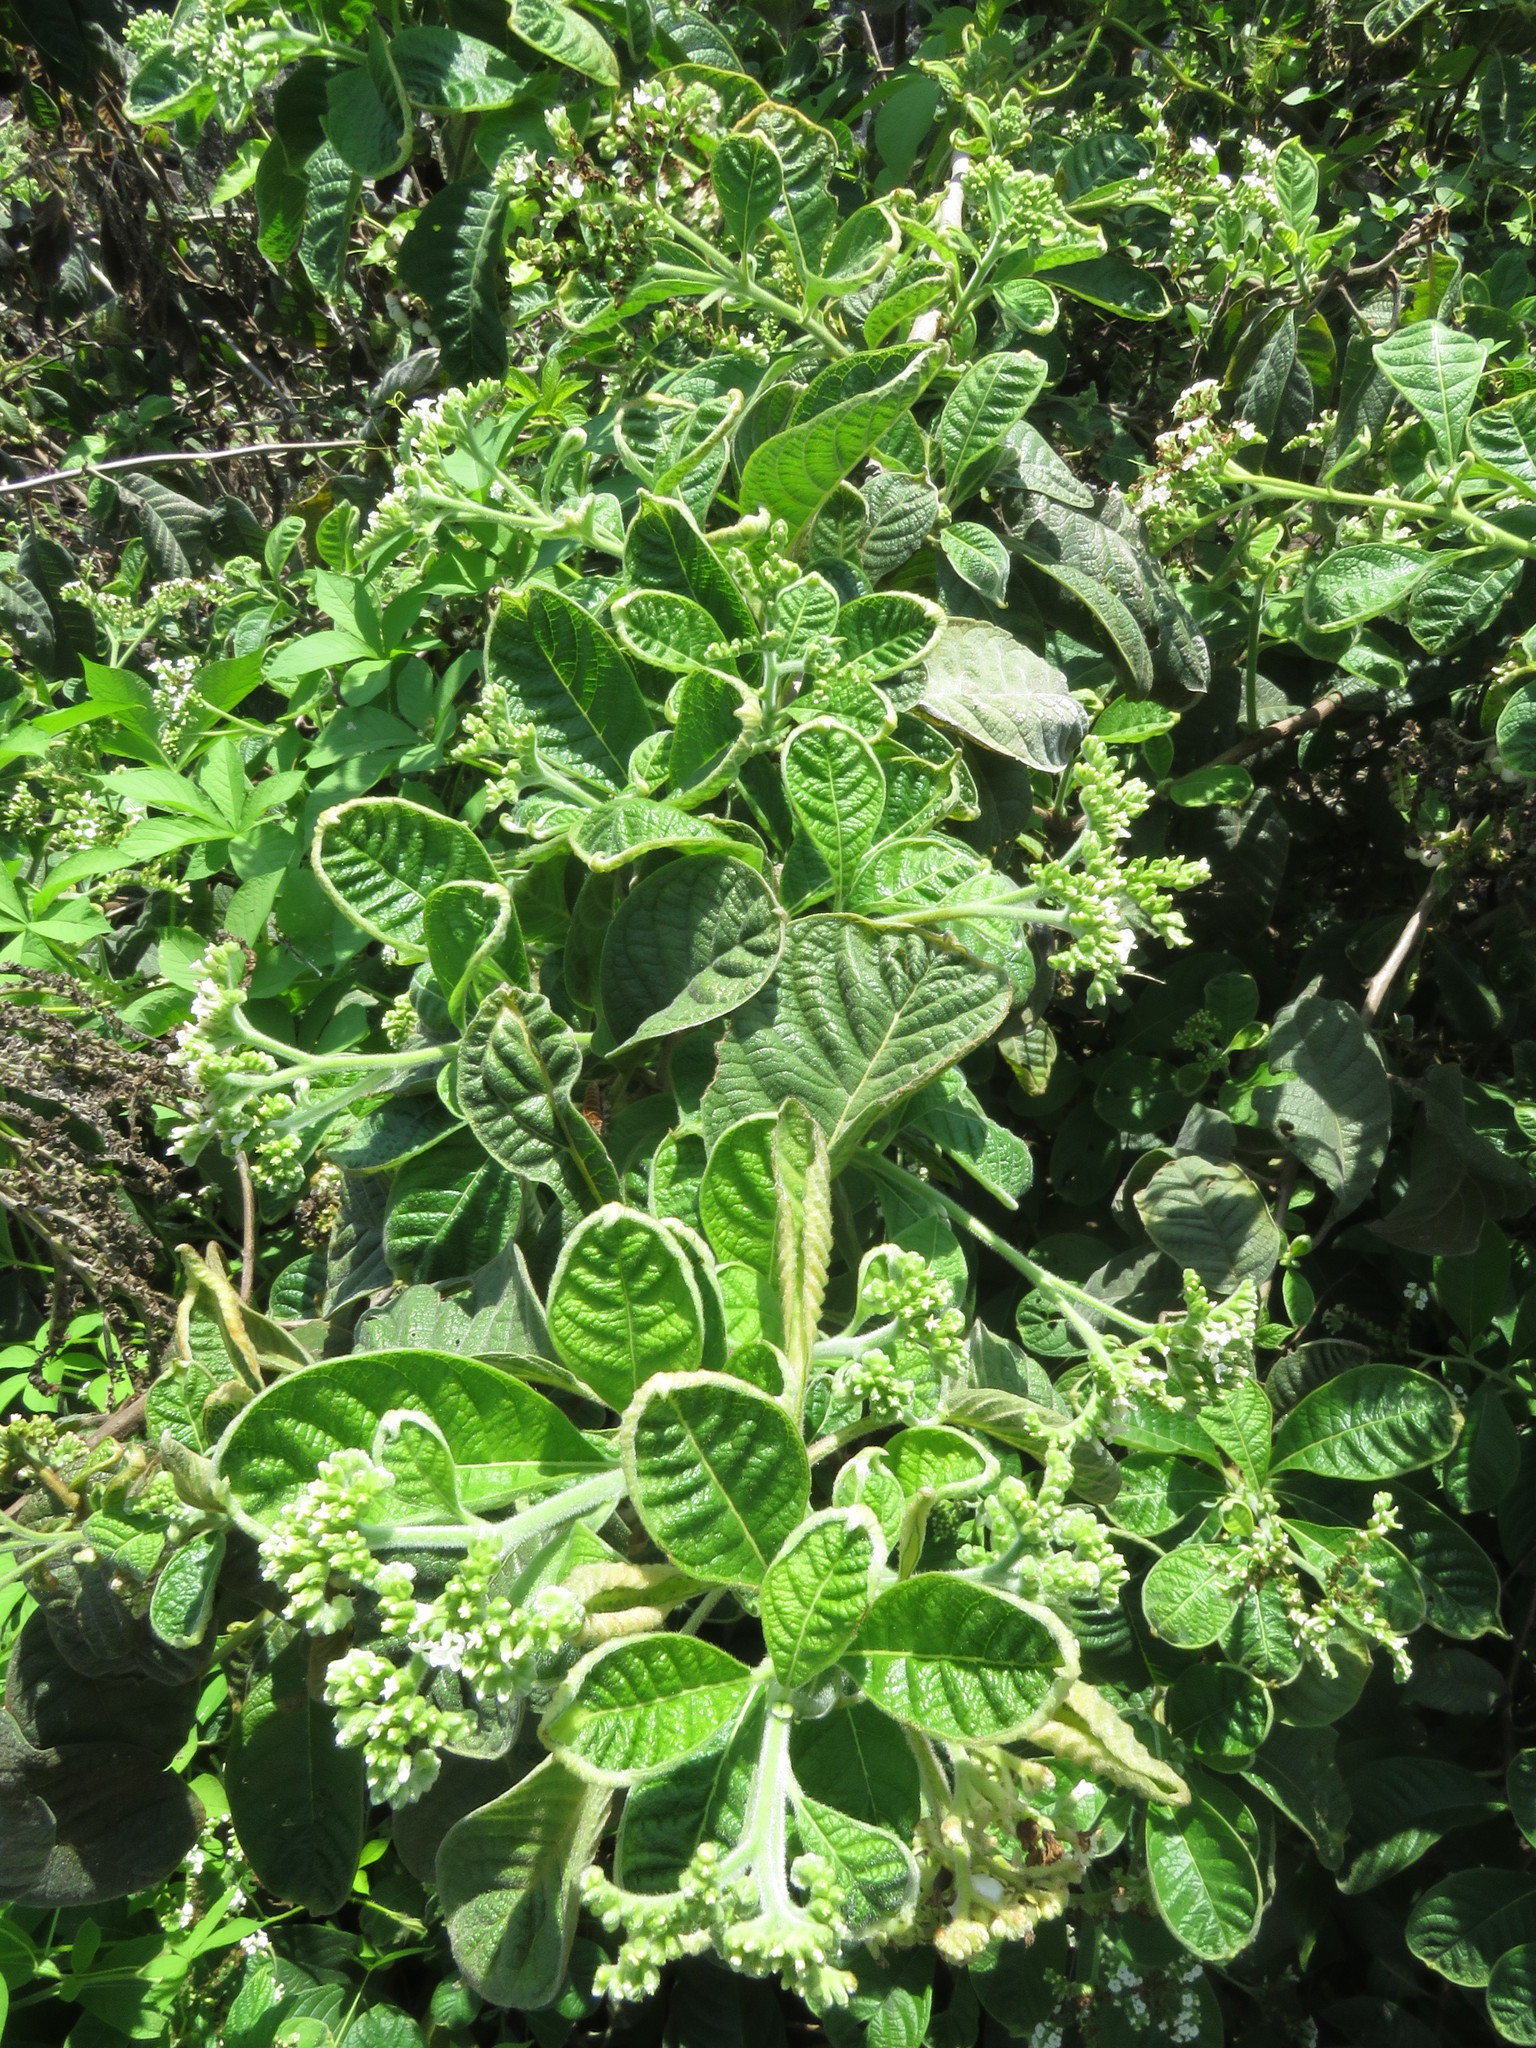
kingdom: Plantae
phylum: Tracheophyta
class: Magnoliopsida
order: Boraginales
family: Heliotropiaceae
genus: Tournefortia
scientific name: Tournefortia rufosericea
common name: Rufous-haired tournefortia
